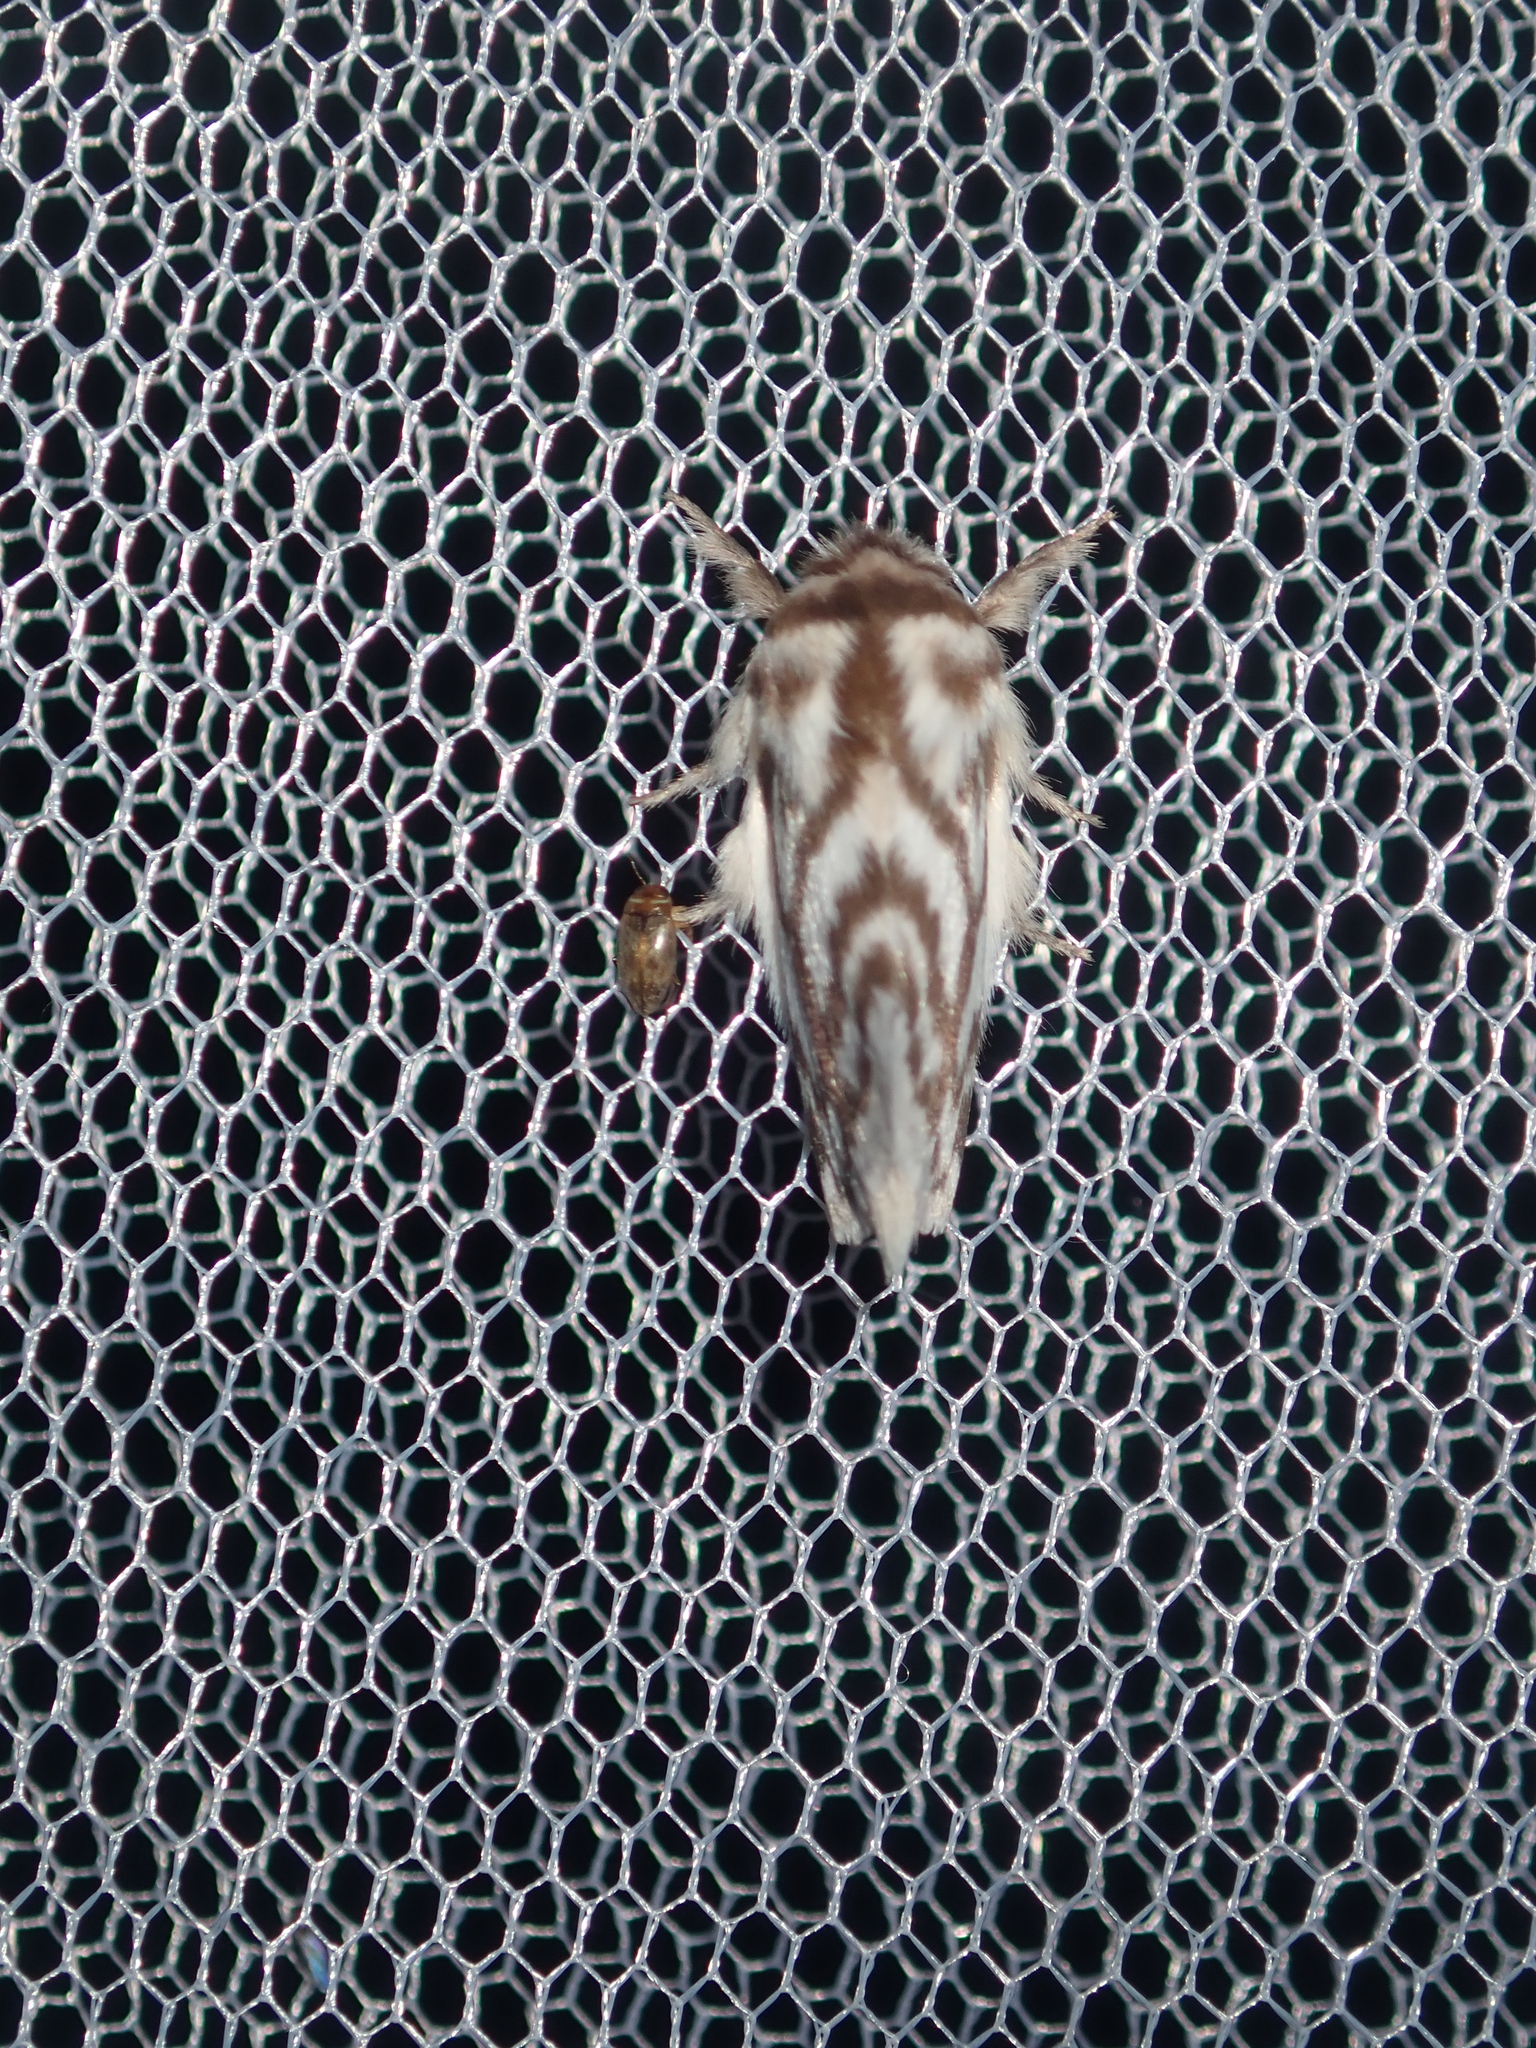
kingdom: Animalia
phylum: Arthropoda
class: Insecta
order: Lepidoptera
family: Lasiocampidae
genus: Pernattia
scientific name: Pernattia chlorophragma
